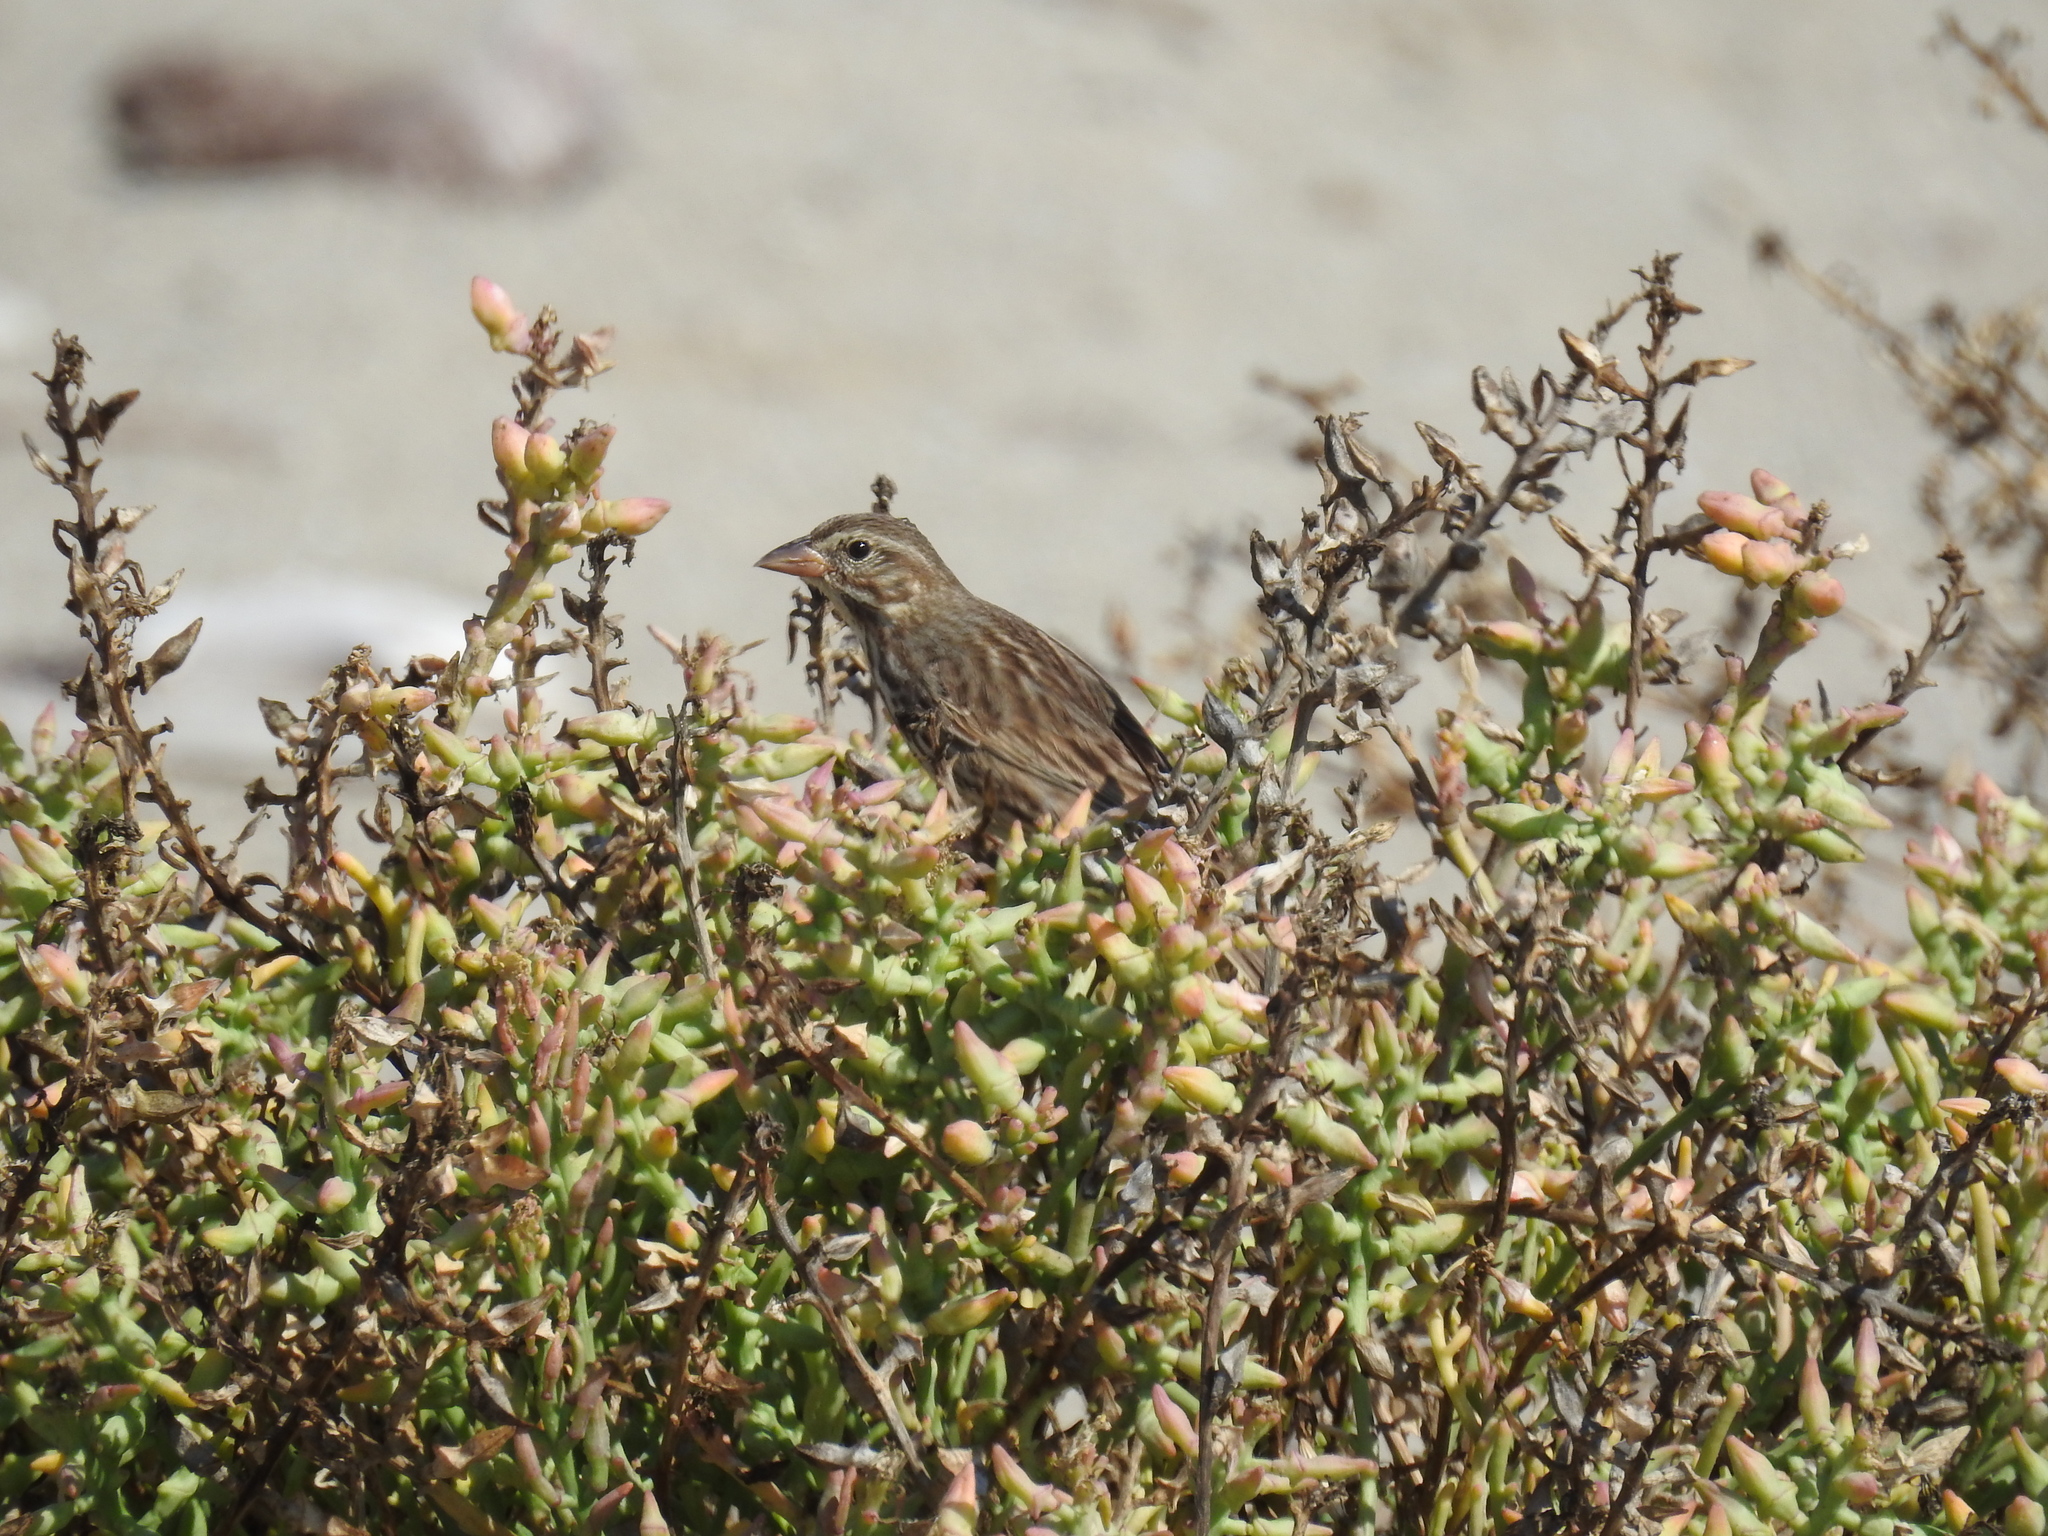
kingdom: Animalia
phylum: Chordata
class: Aves
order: Passeriformes
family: Passerellidae
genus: Passerculus
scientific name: Passerculus sandwichensis
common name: Savannah sparrow
